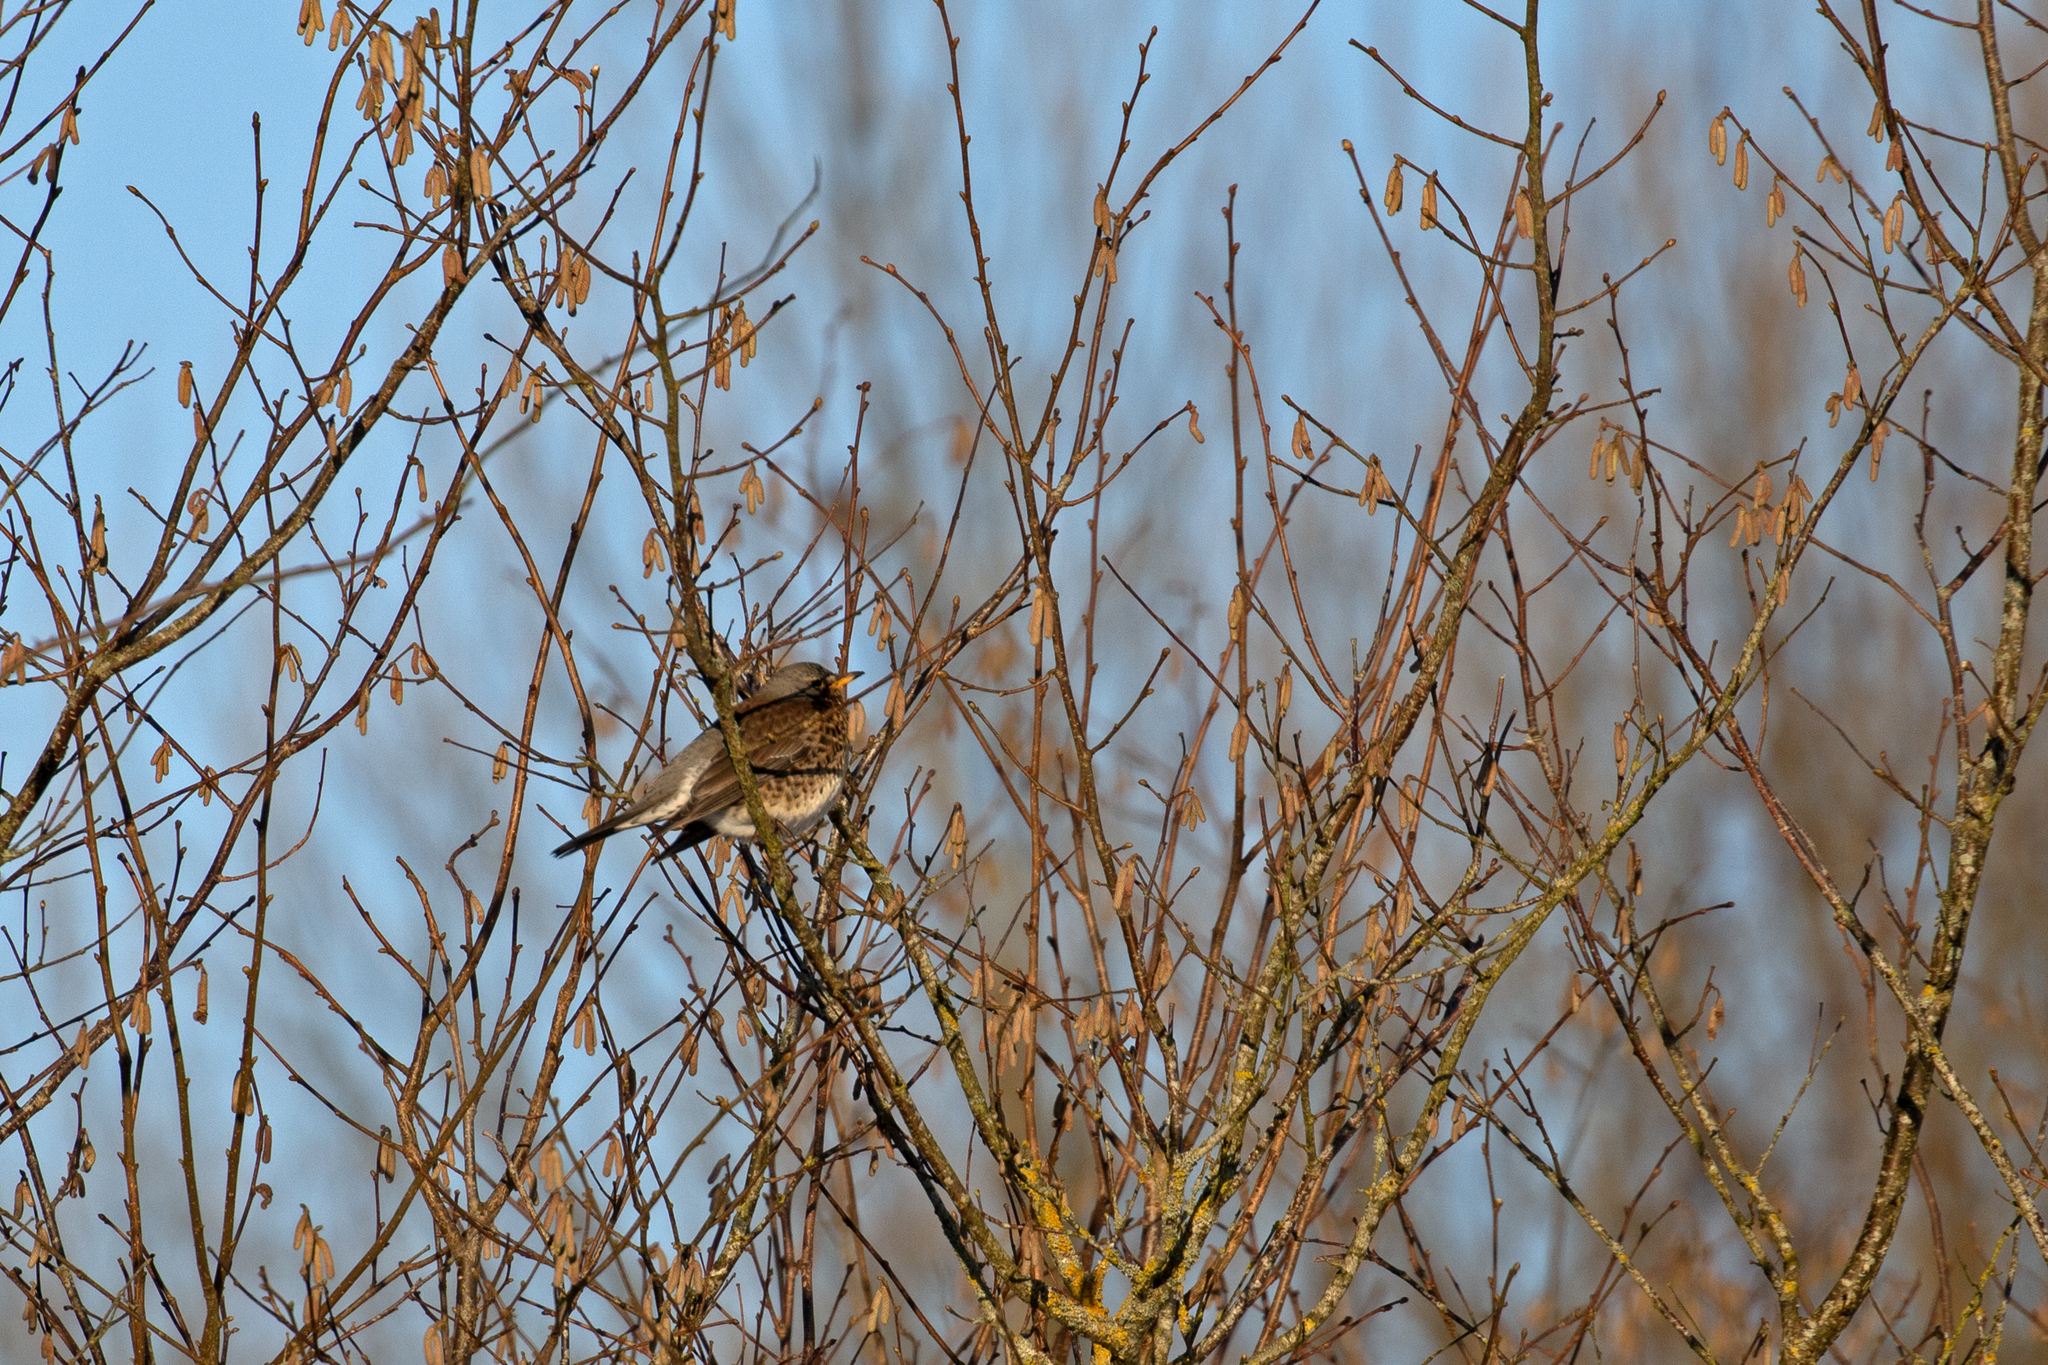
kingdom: Animalia
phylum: Chordata
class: Aves
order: Passeriformes
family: Turdidae
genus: Turdus
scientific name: Turdus pilaris
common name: Fieldfare
